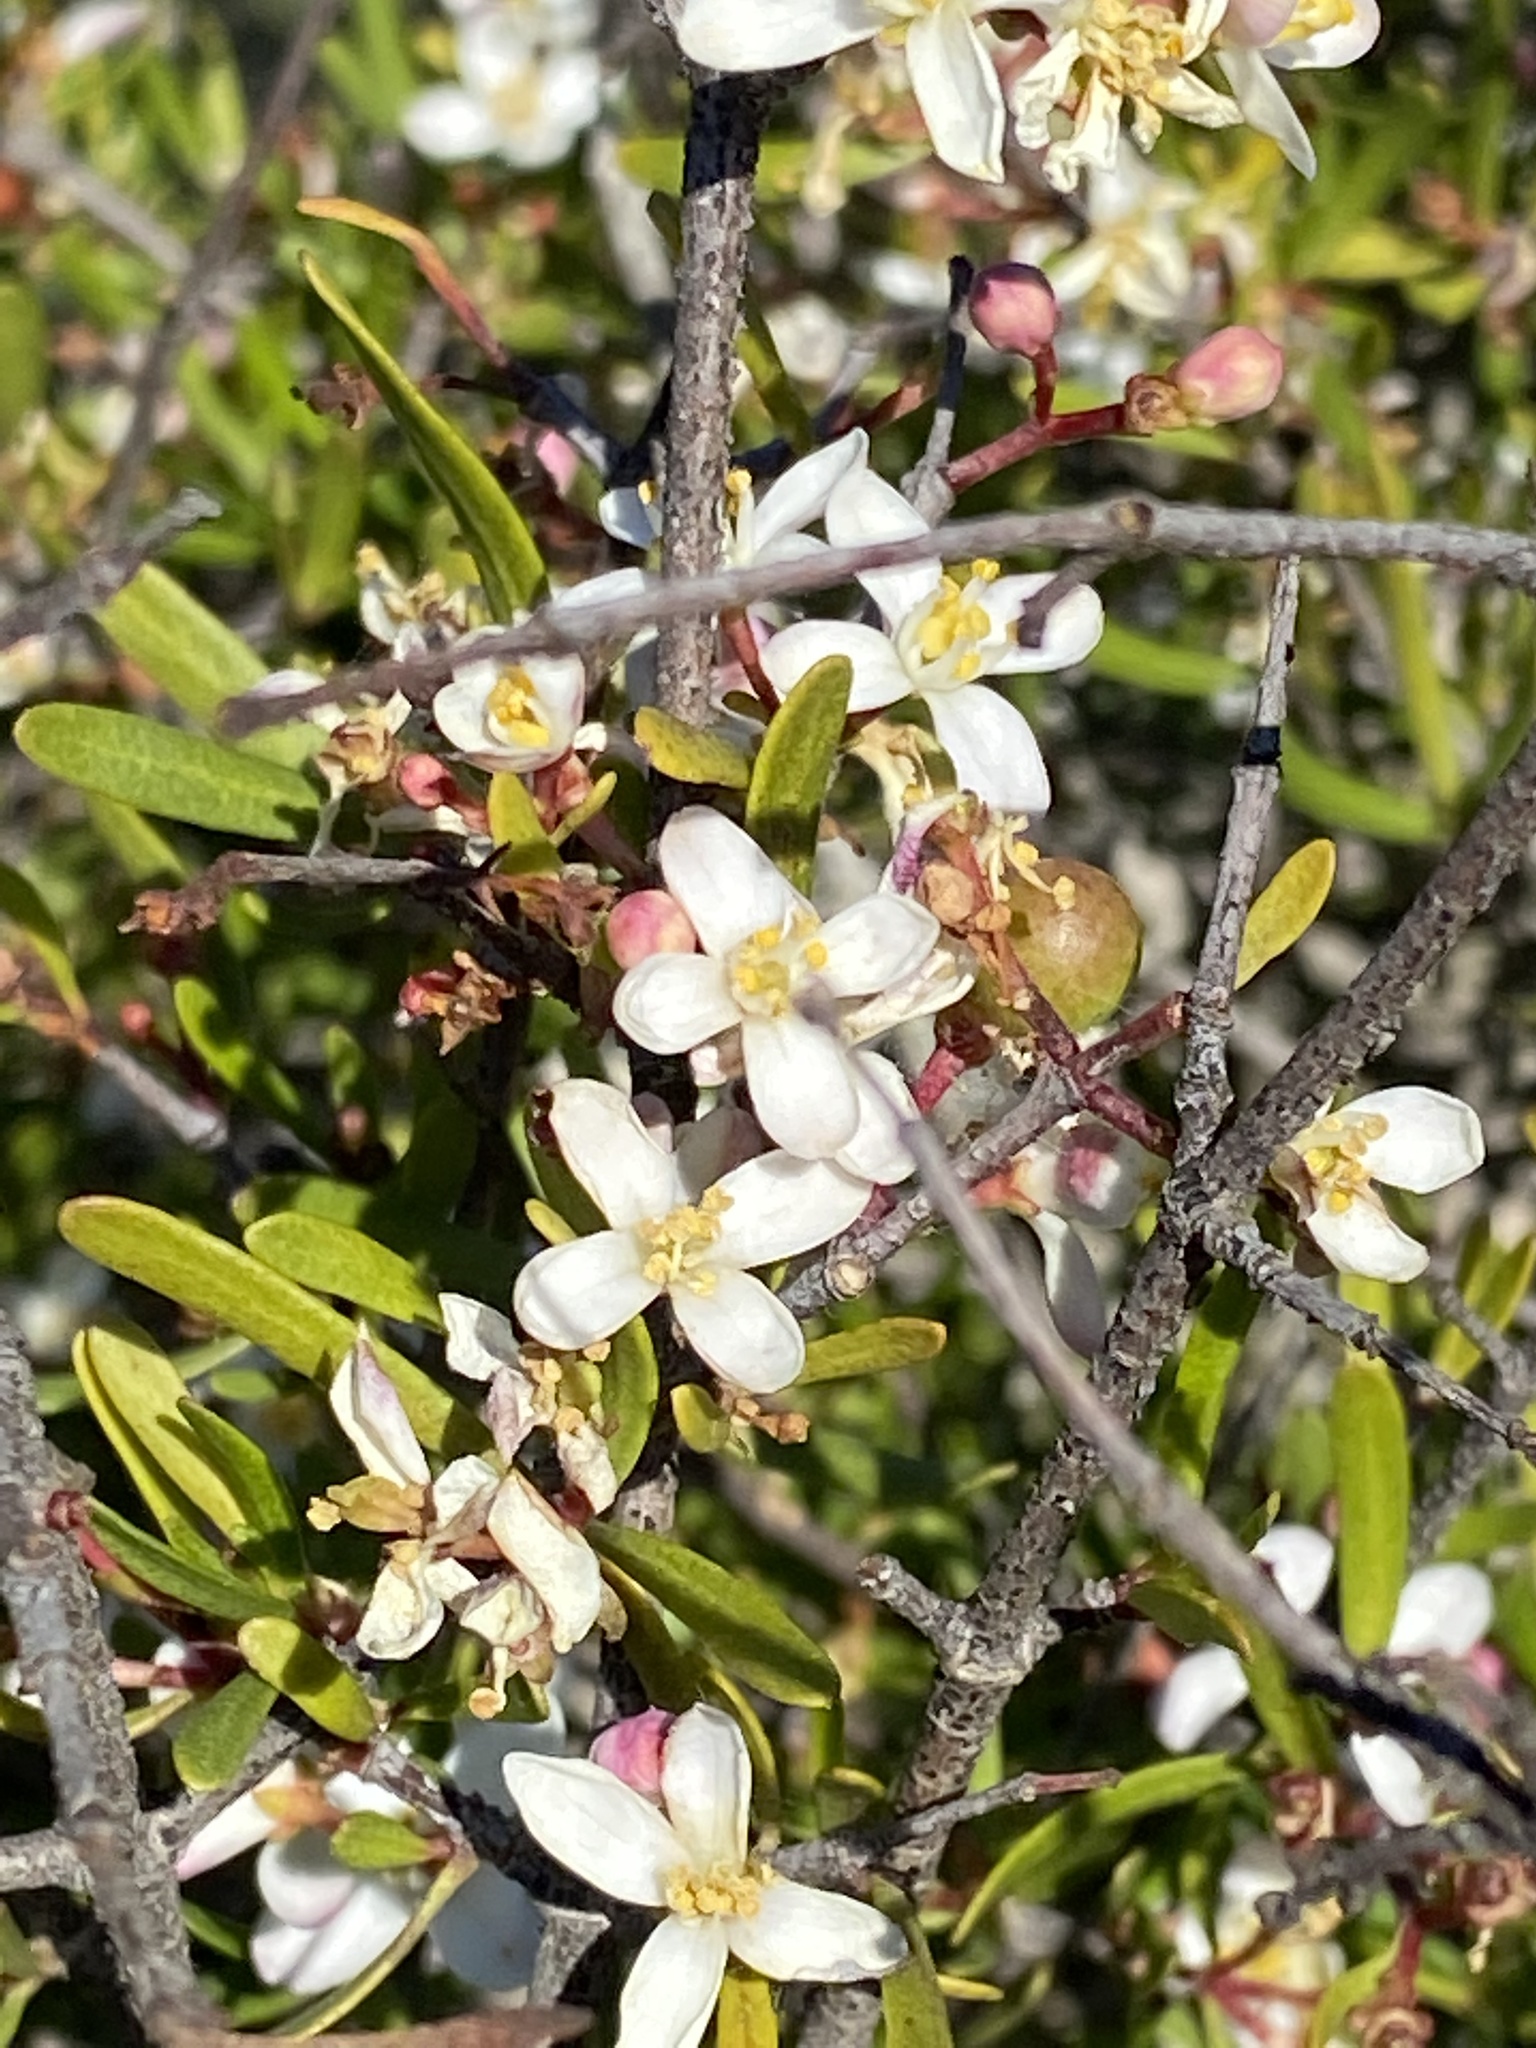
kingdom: Plantae
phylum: Tracheophyta
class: Magnoliopsida
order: Sapindales
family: Rutaceae
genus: Cneoridium
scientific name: Cneoridium dumosum
